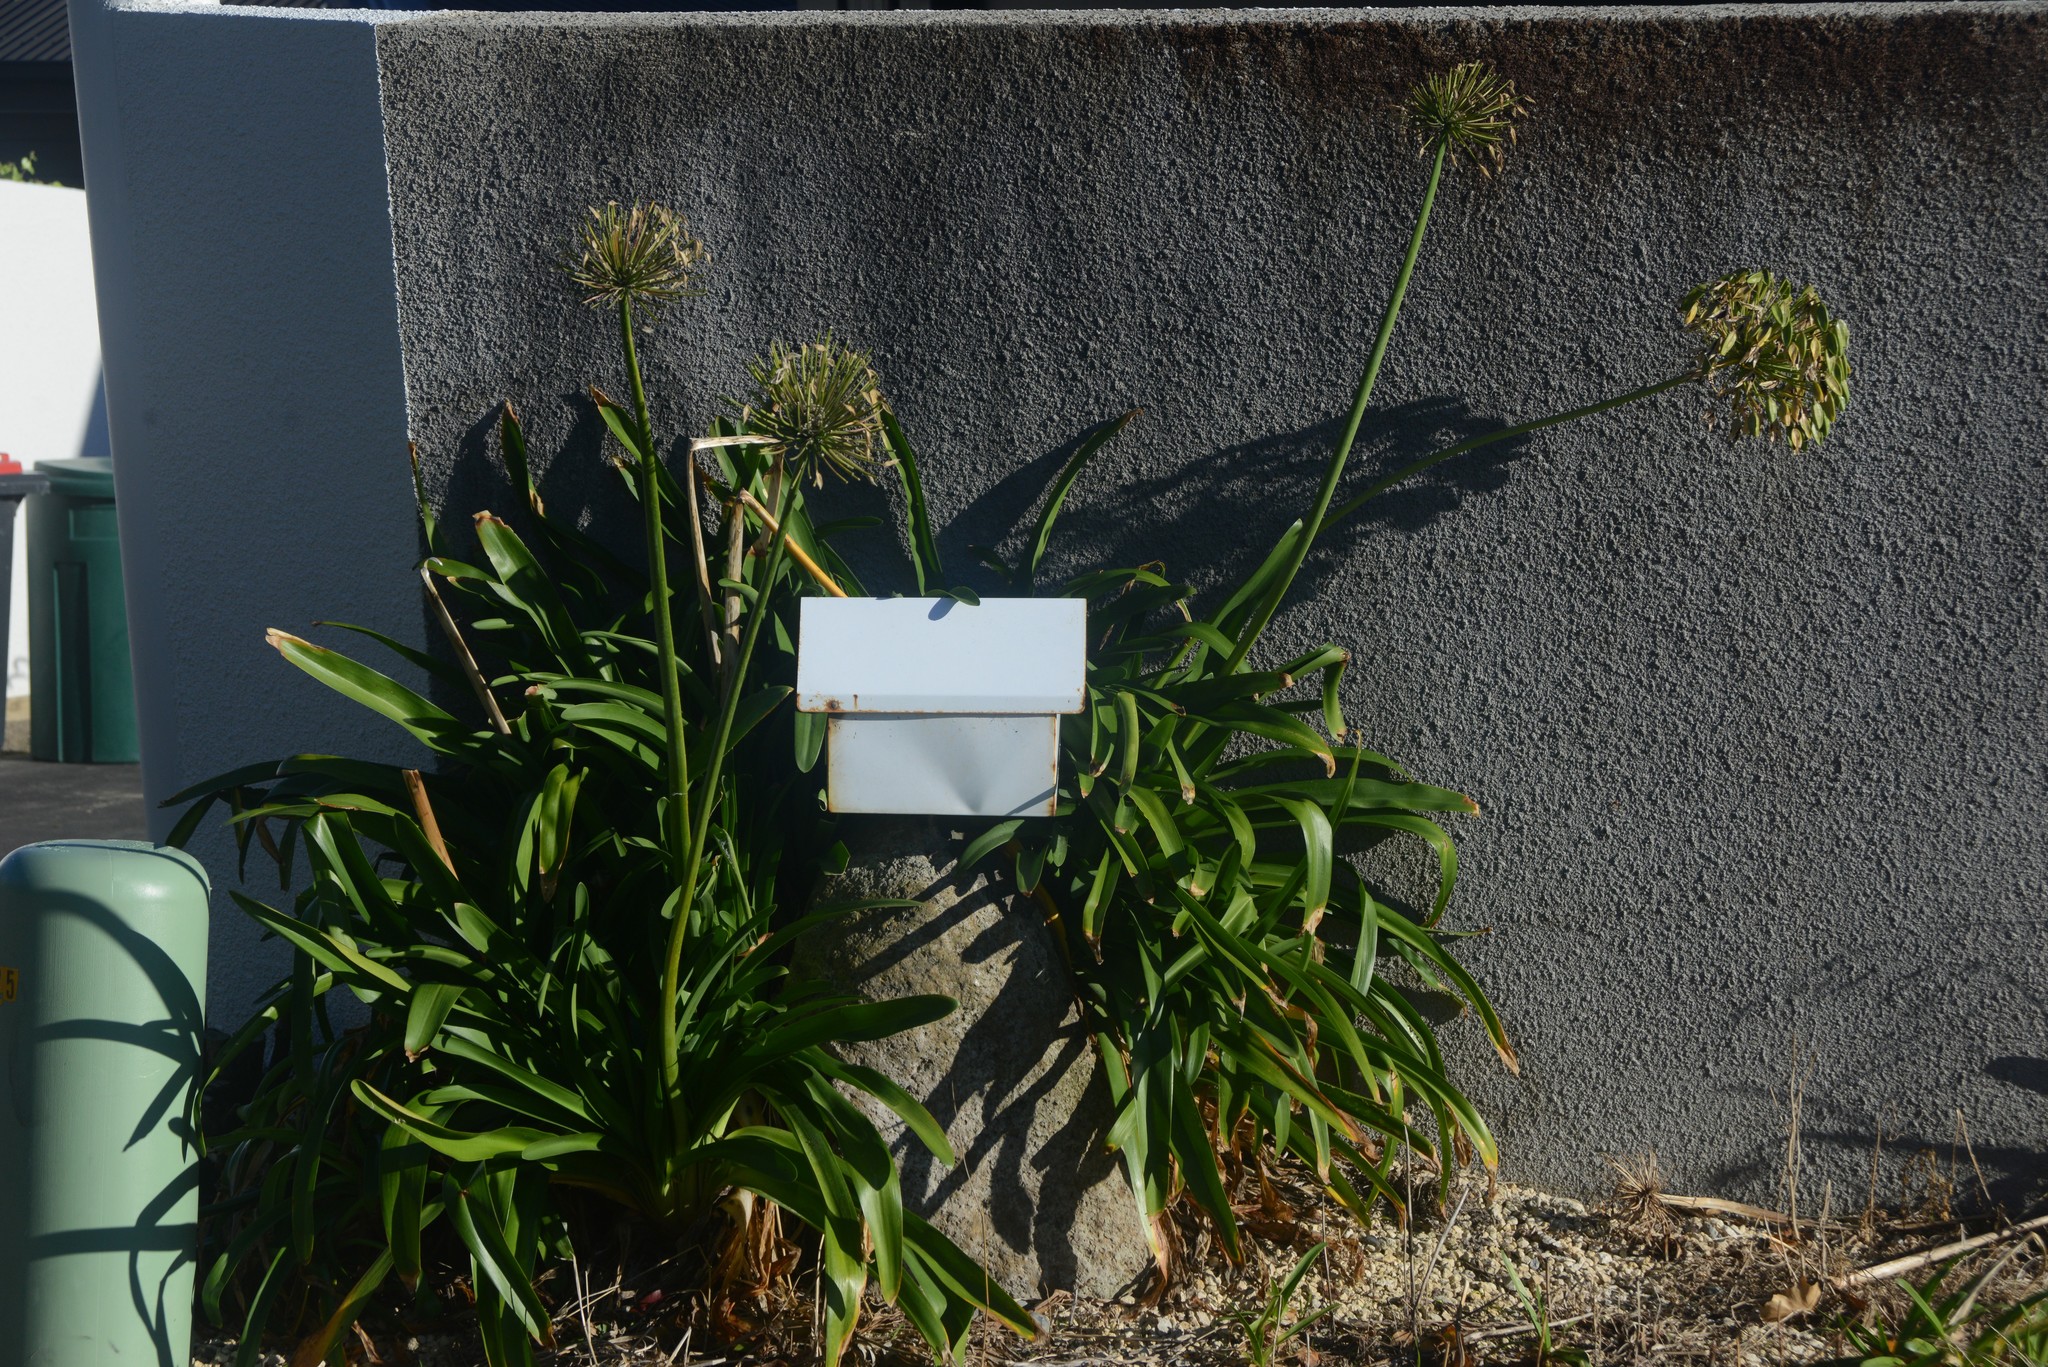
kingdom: Plantae
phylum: Tracheophyta
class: Liliopsida
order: Asparagales
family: Amaryllidaceae
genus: Agapanthus
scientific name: Agapanthus praecox
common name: African-lily
